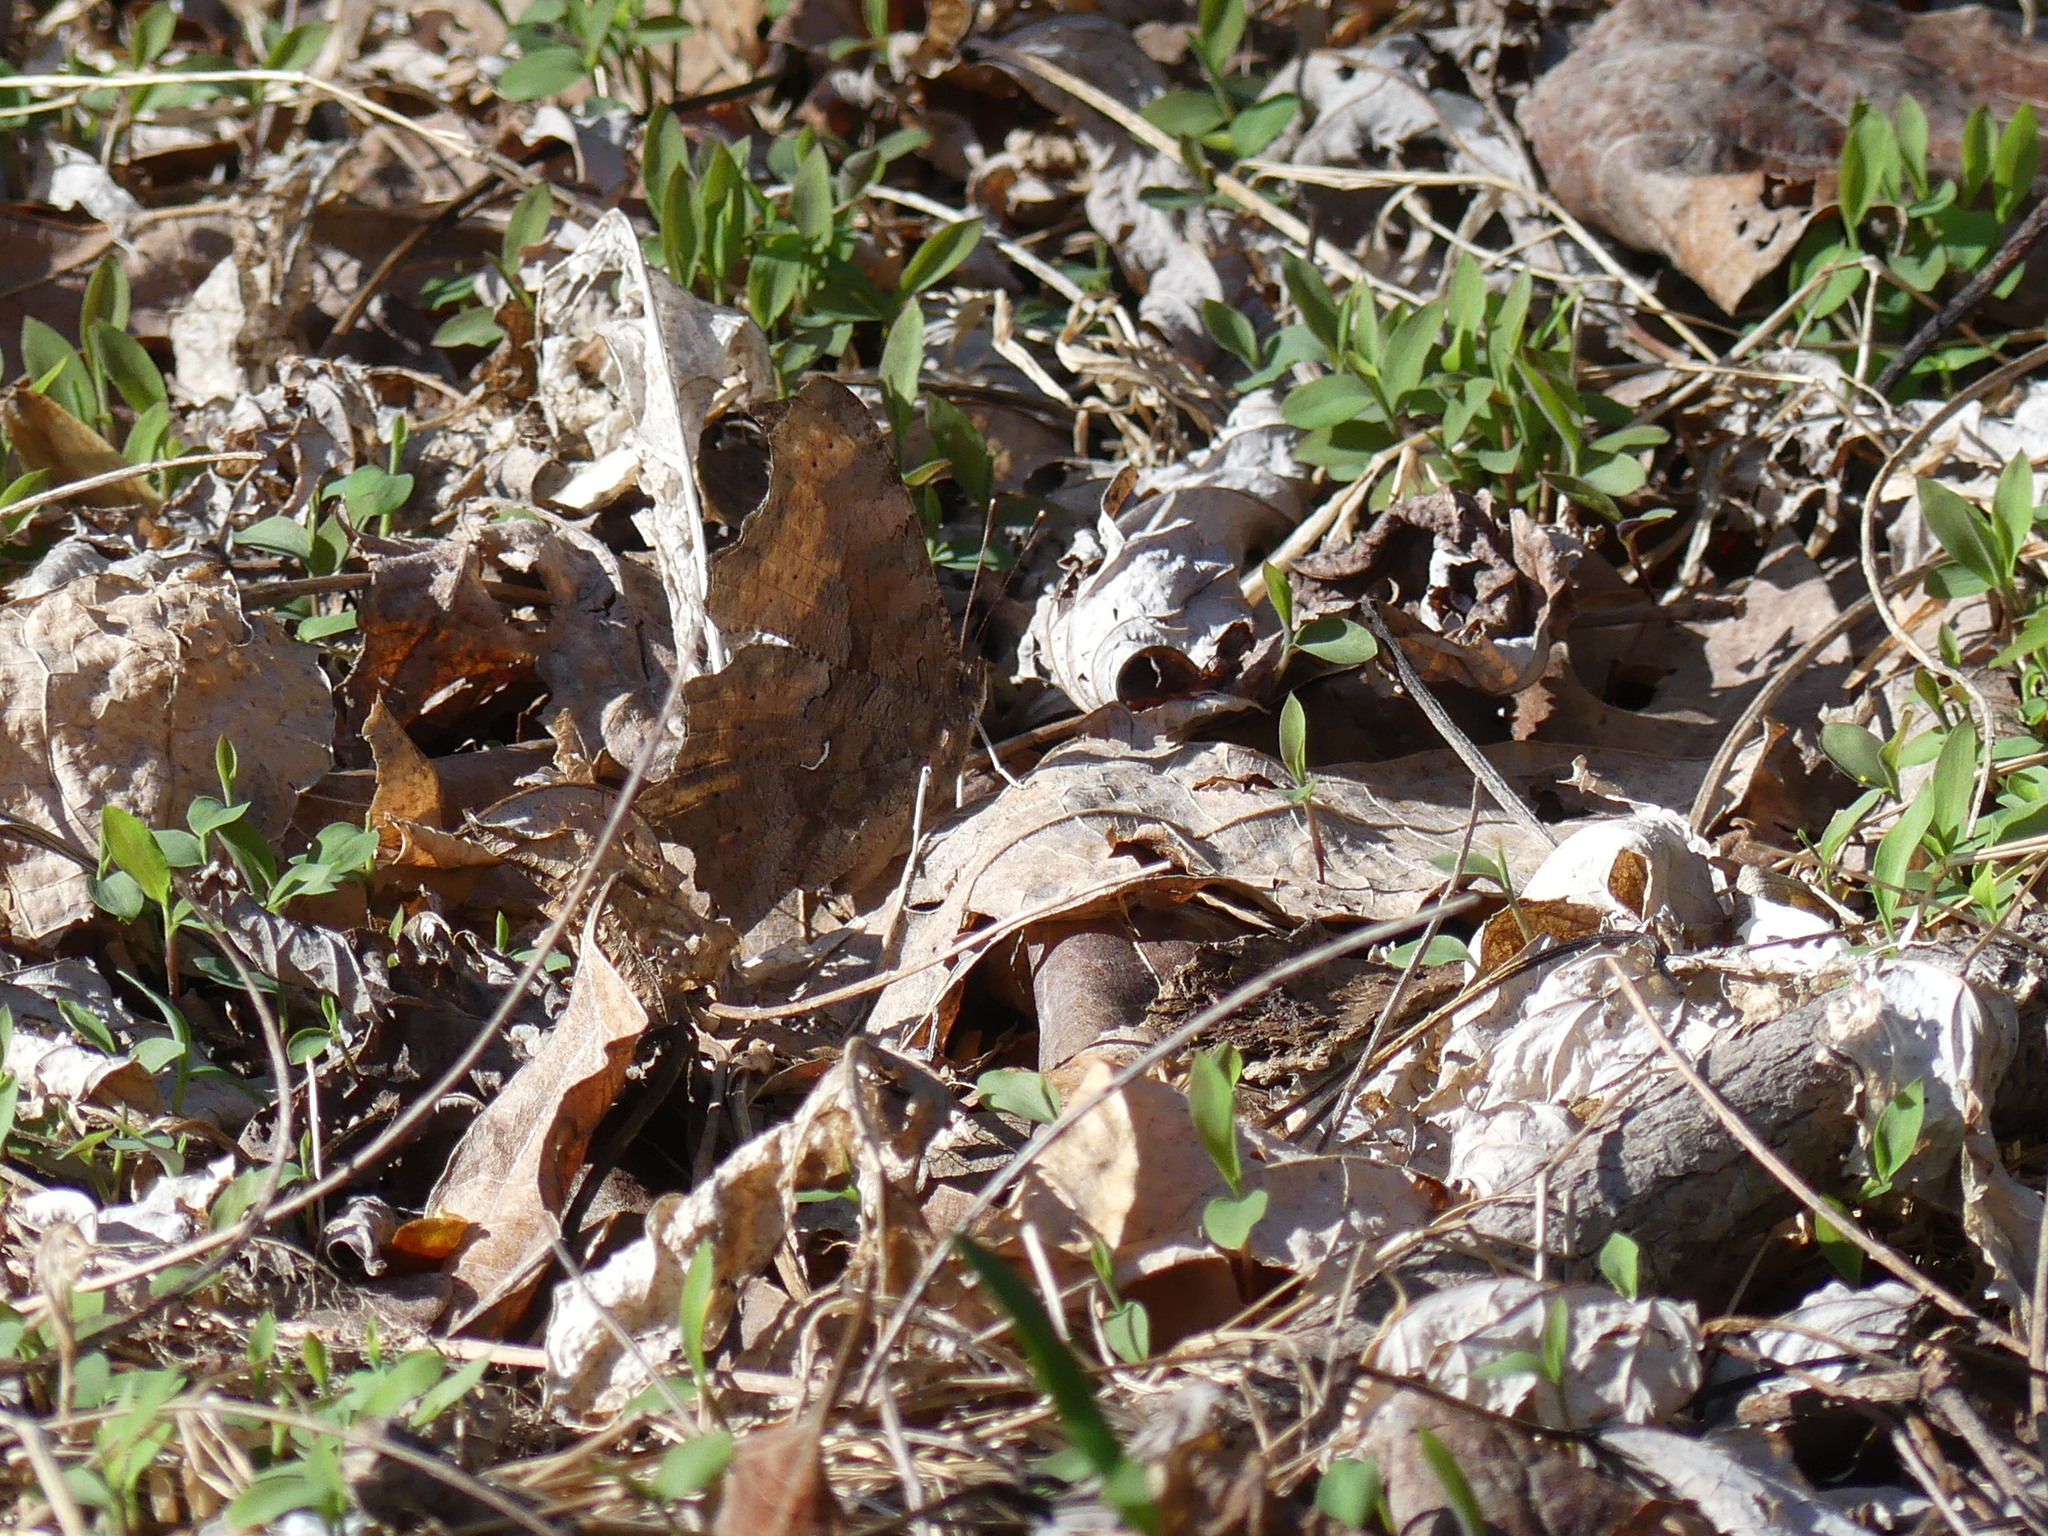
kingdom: Animalia
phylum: Arthropoda
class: Insecta
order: Lepidoptera
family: Nymphalidae
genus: Polygonia
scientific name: Polygonia comma
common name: Eastern comma
